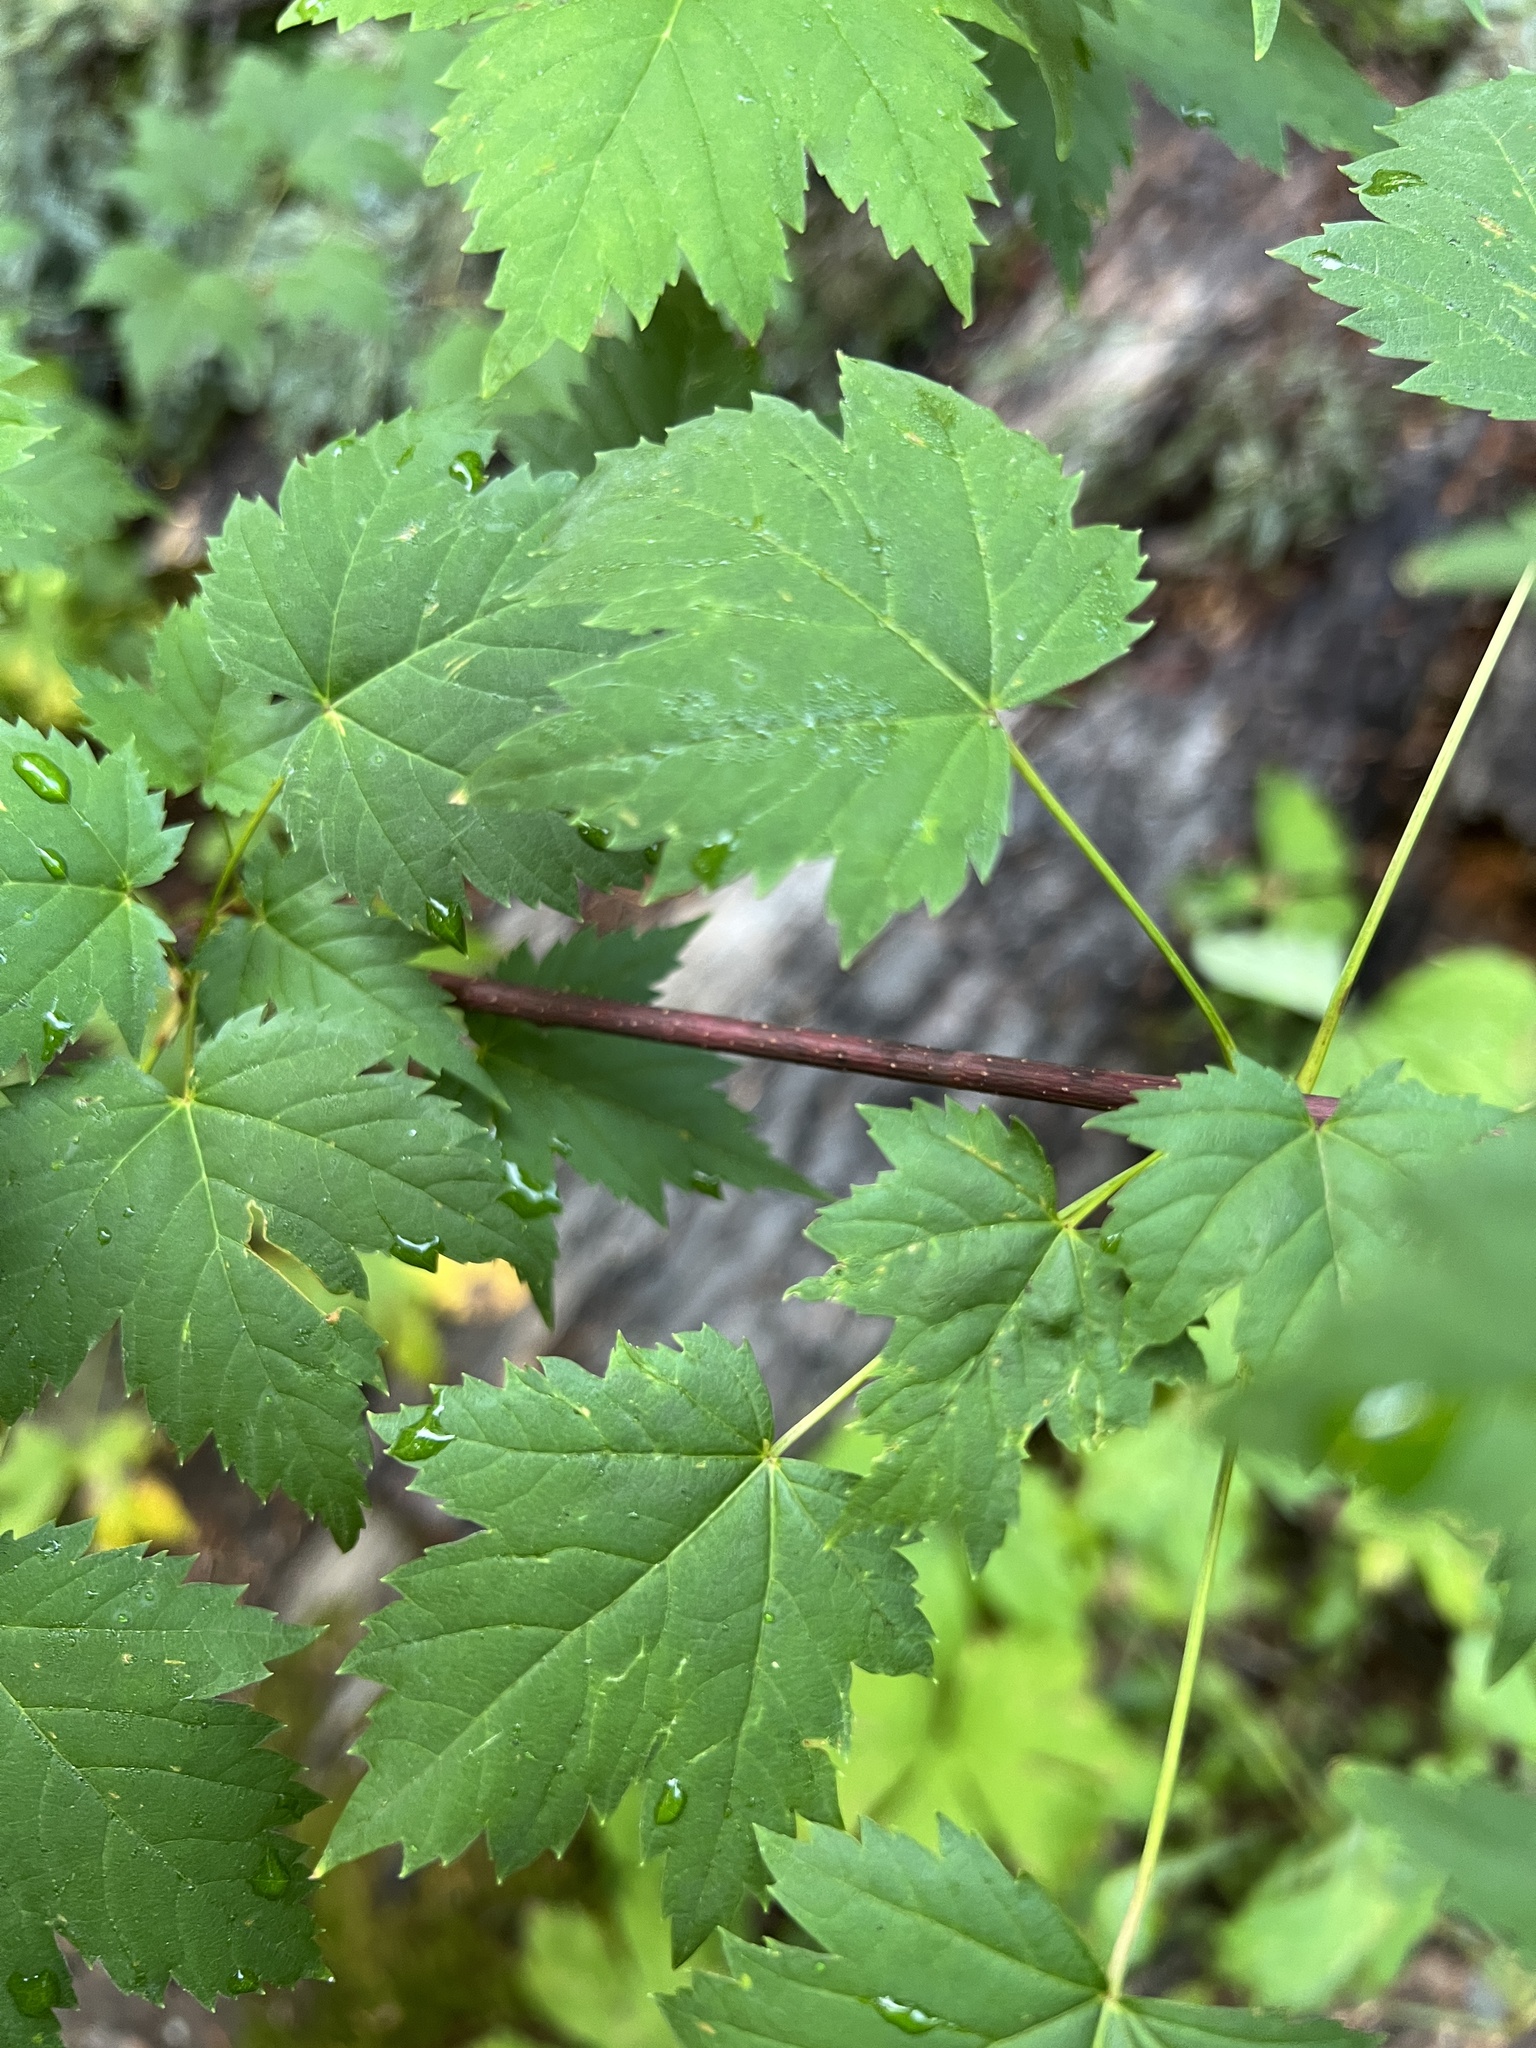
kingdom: Plantae
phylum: Tracheophyta
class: Magnoliopsida
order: Sapindales
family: Sapindaceae
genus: Acer
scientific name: Acer glabrum
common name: Rocky mountain maple
